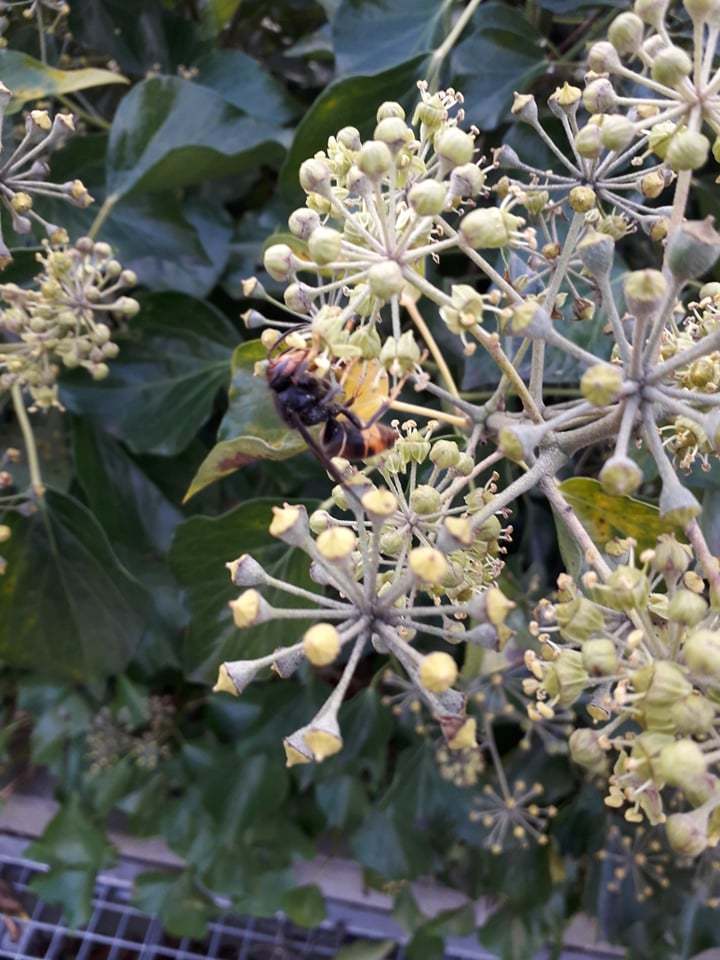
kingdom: Animalia
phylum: Arthropoda
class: Insecta
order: Hymenoptera
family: Vespidae
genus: Vespa
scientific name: Vespa velutina
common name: Asian hornet
